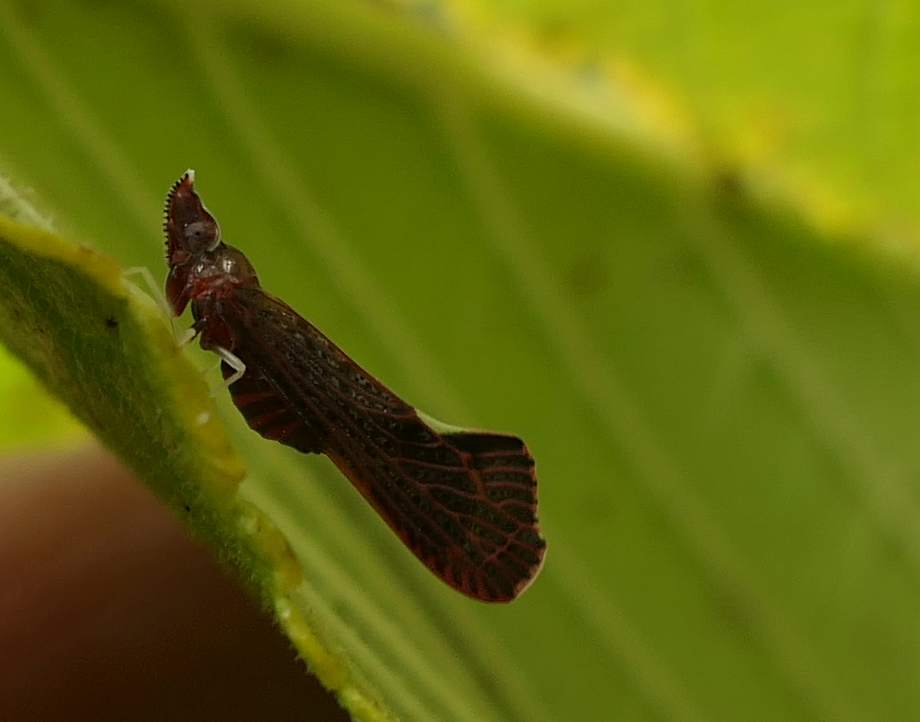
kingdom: Animalia
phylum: Arthropoda
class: Insecta
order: Hemiptera
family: Derbidae
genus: Apache
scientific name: Apache degeeri
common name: Red-fanned planthopper
